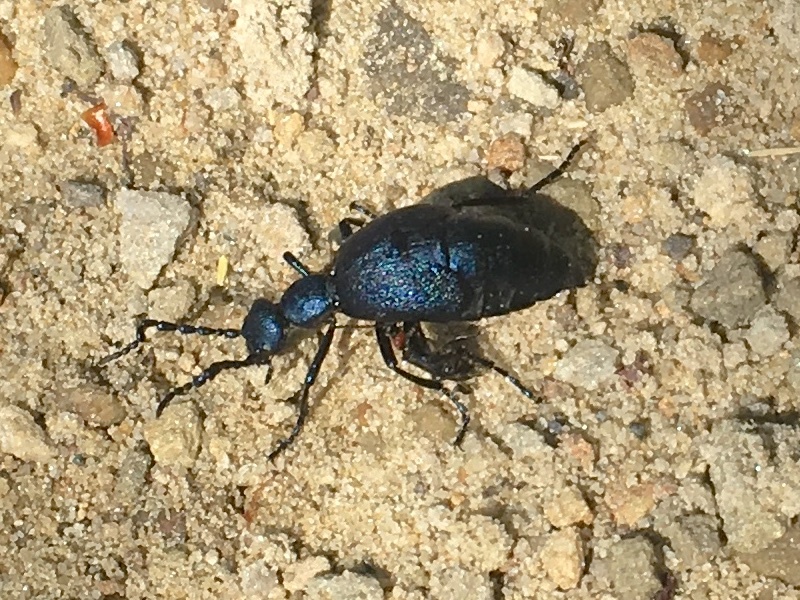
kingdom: Animalia
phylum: Arthropoda
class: Insecta
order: Coleoptera
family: Meloidae
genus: Meloe
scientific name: Meloe angusticollis
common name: Short-winged blister beetle
